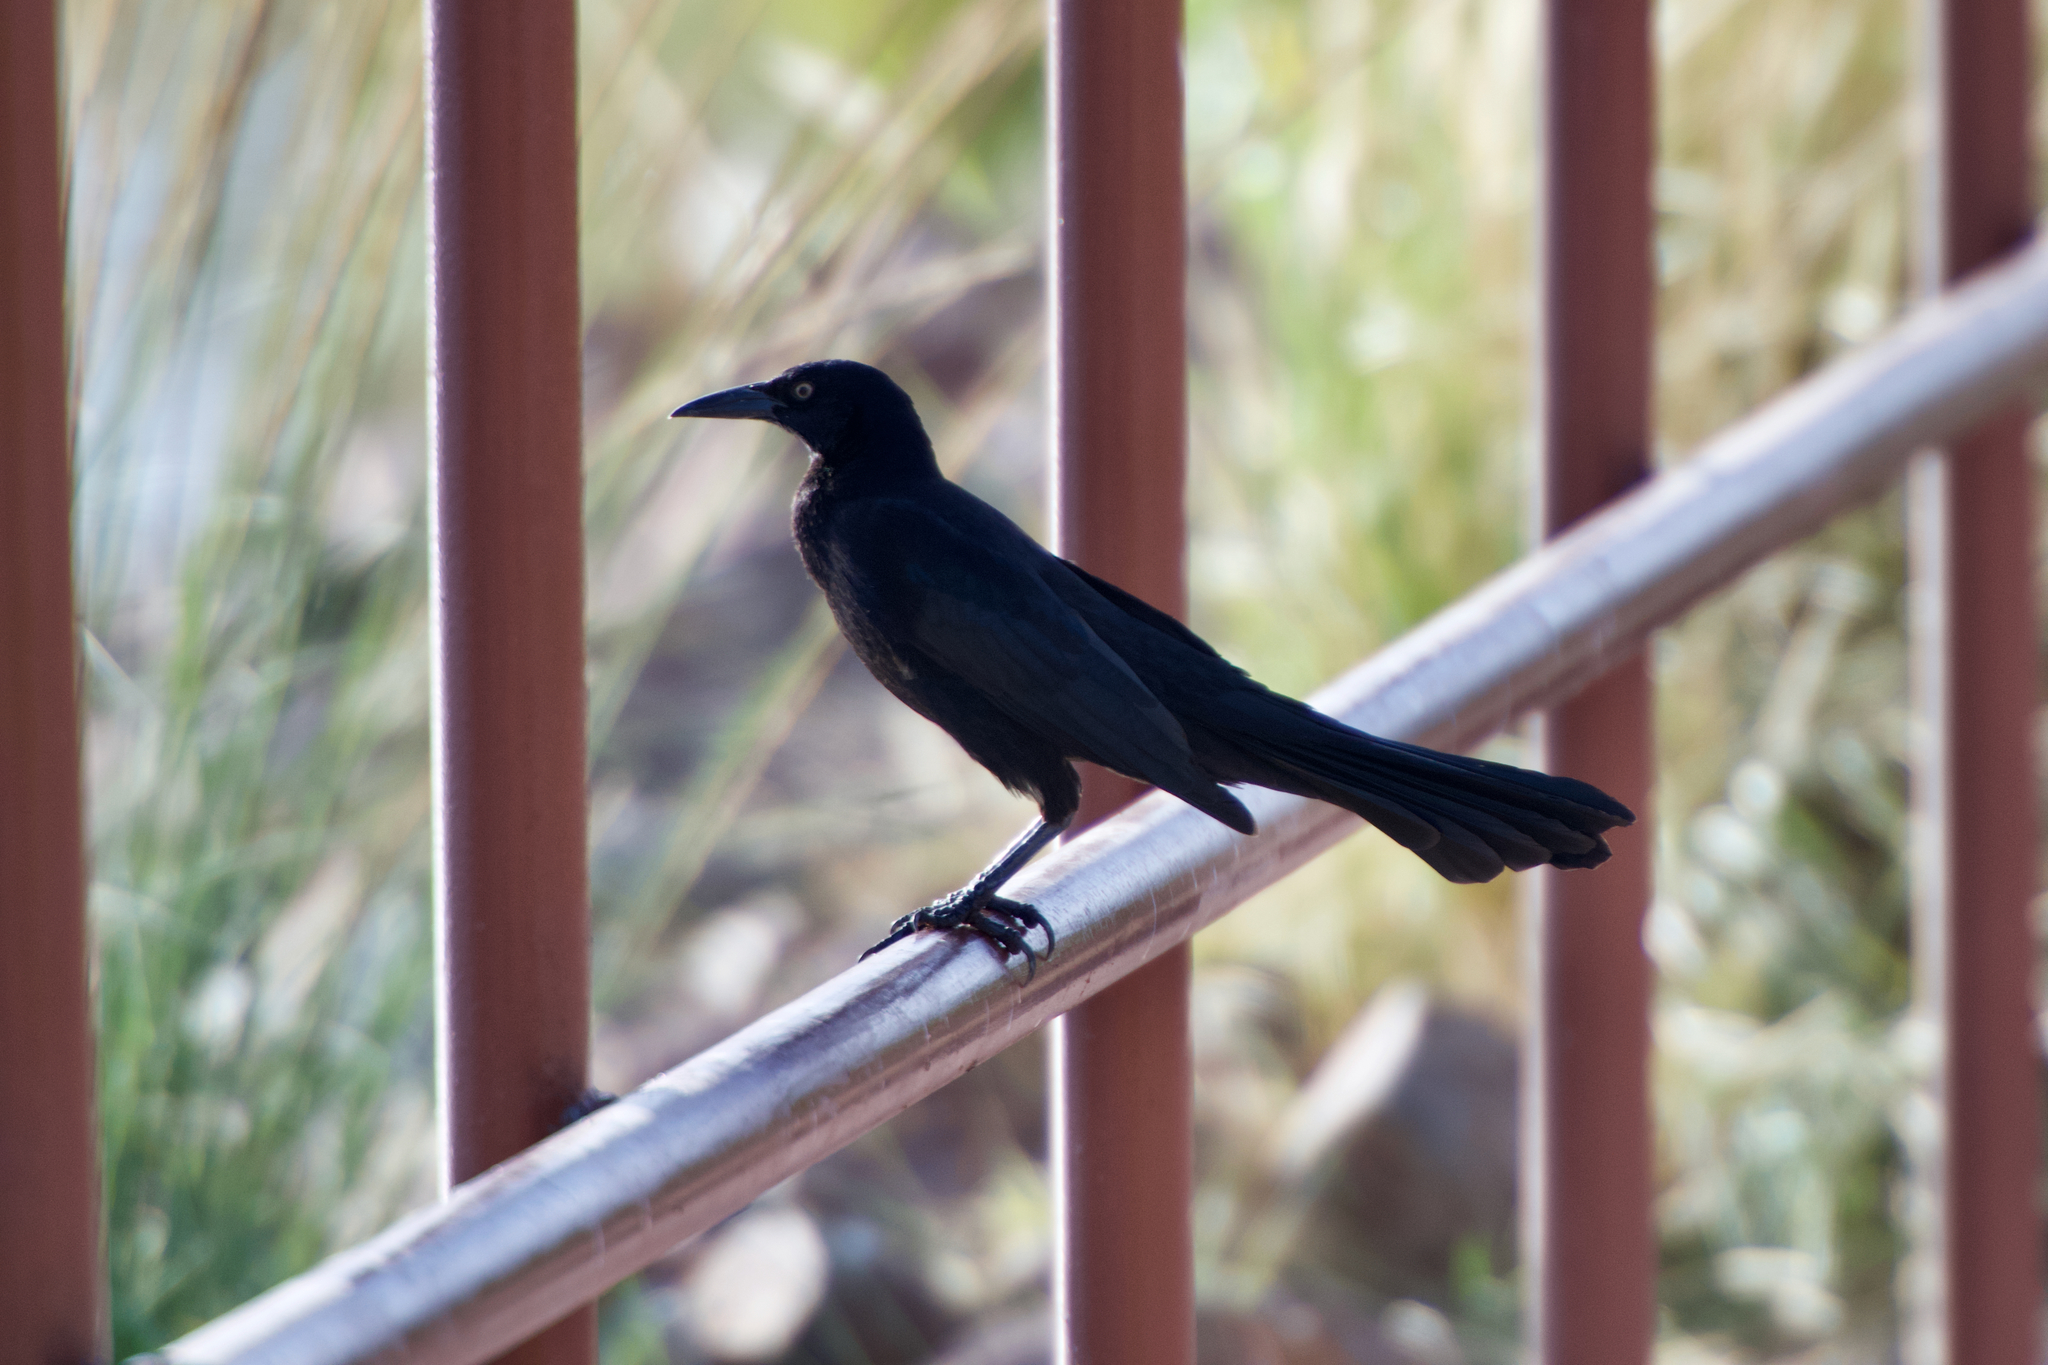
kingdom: Animalia
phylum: Chordata
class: Aves
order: Passeriformes
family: Icteridae
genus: Quiscalus
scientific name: Quiscalus mexicanus
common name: Great-tailed grackle
